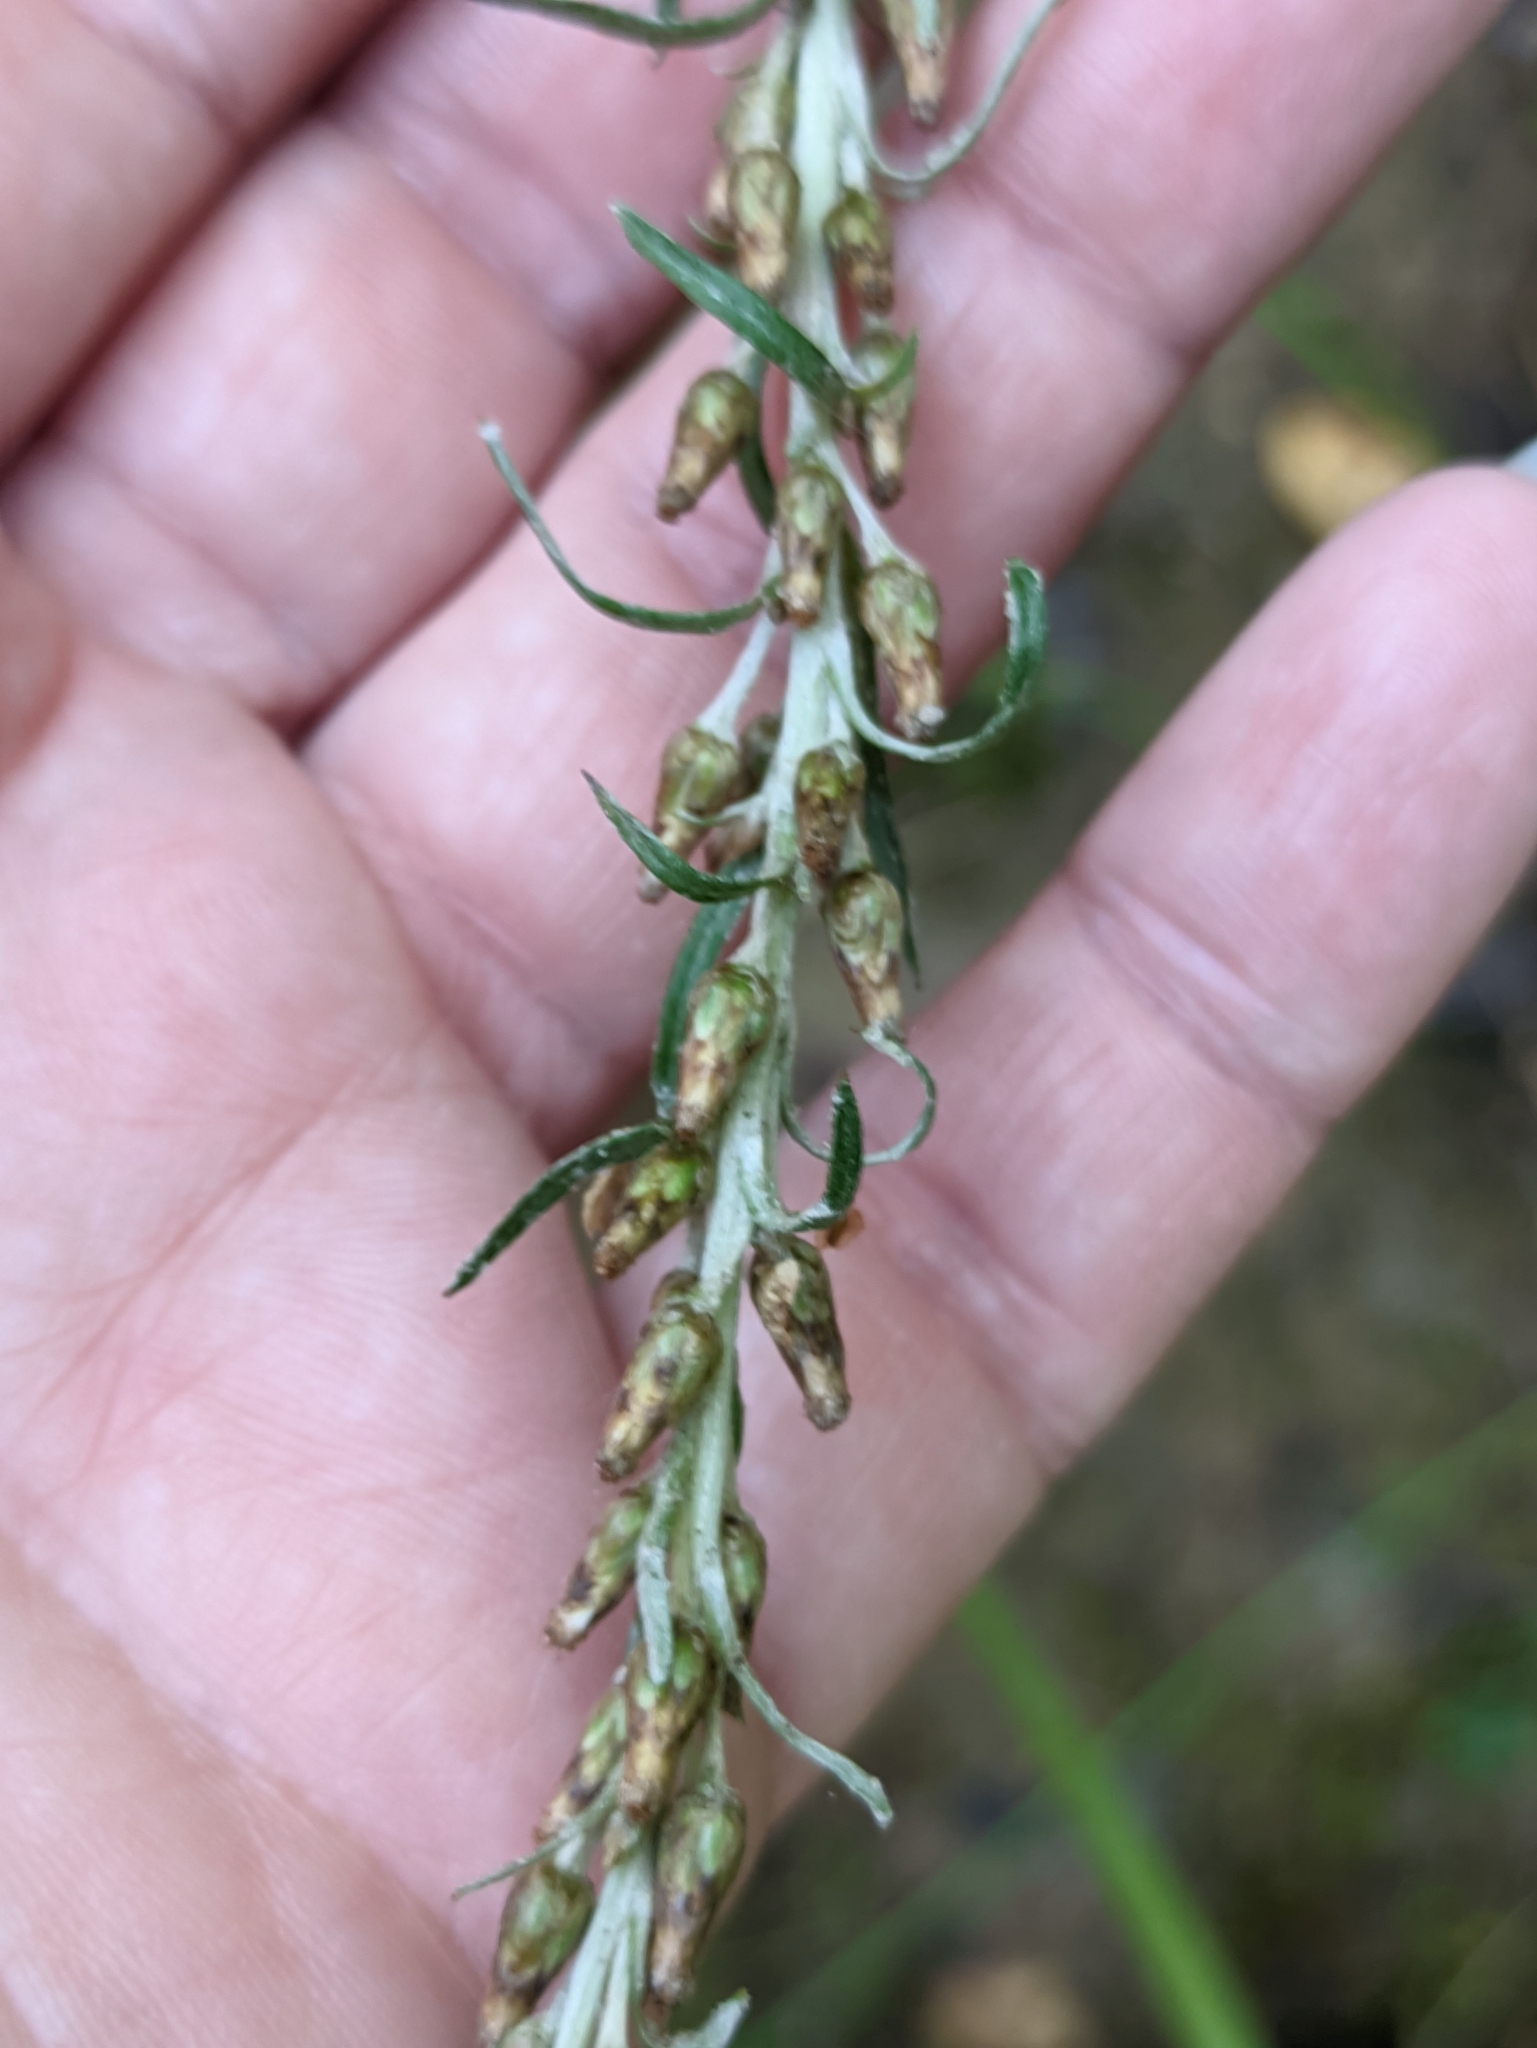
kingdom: Plantae
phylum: Tracheophyta
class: Magnoliopsida
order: Asterales
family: Asteraceae
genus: Omalotheca
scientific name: Omalotheca sylvatica
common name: Heath cudweed
